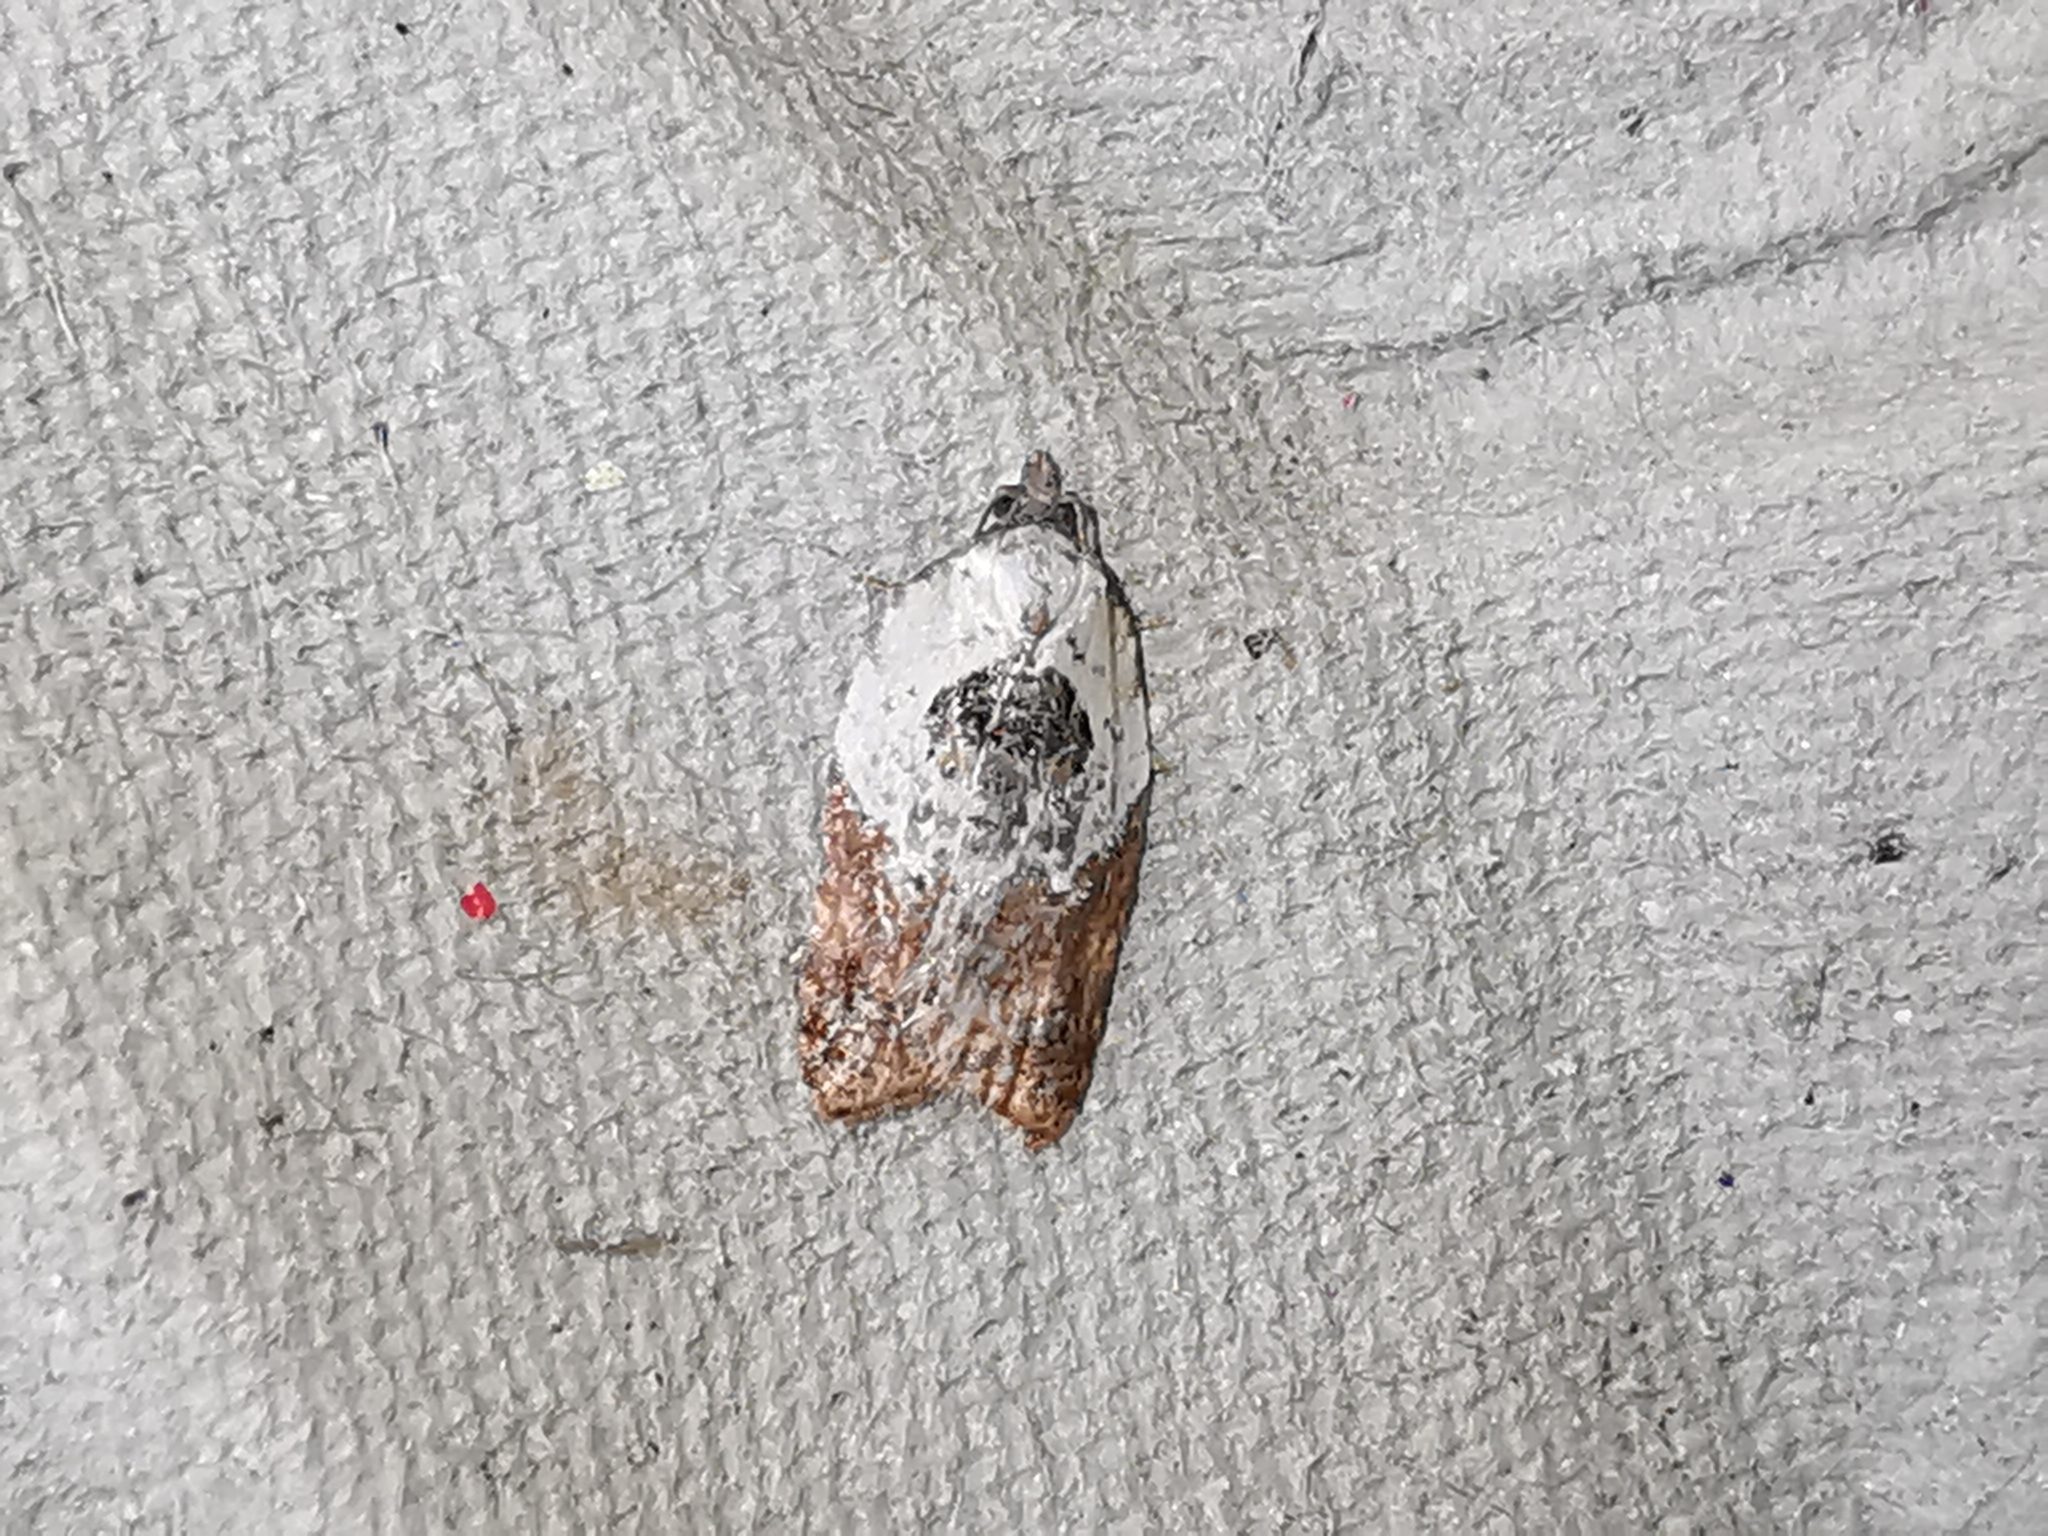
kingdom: Animalia
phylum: Arthropoda
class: Insecta
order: Lepidoptera
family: Tortricidae
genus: Acleris
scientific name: Acleris variegana
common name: Garden rose tortrix
